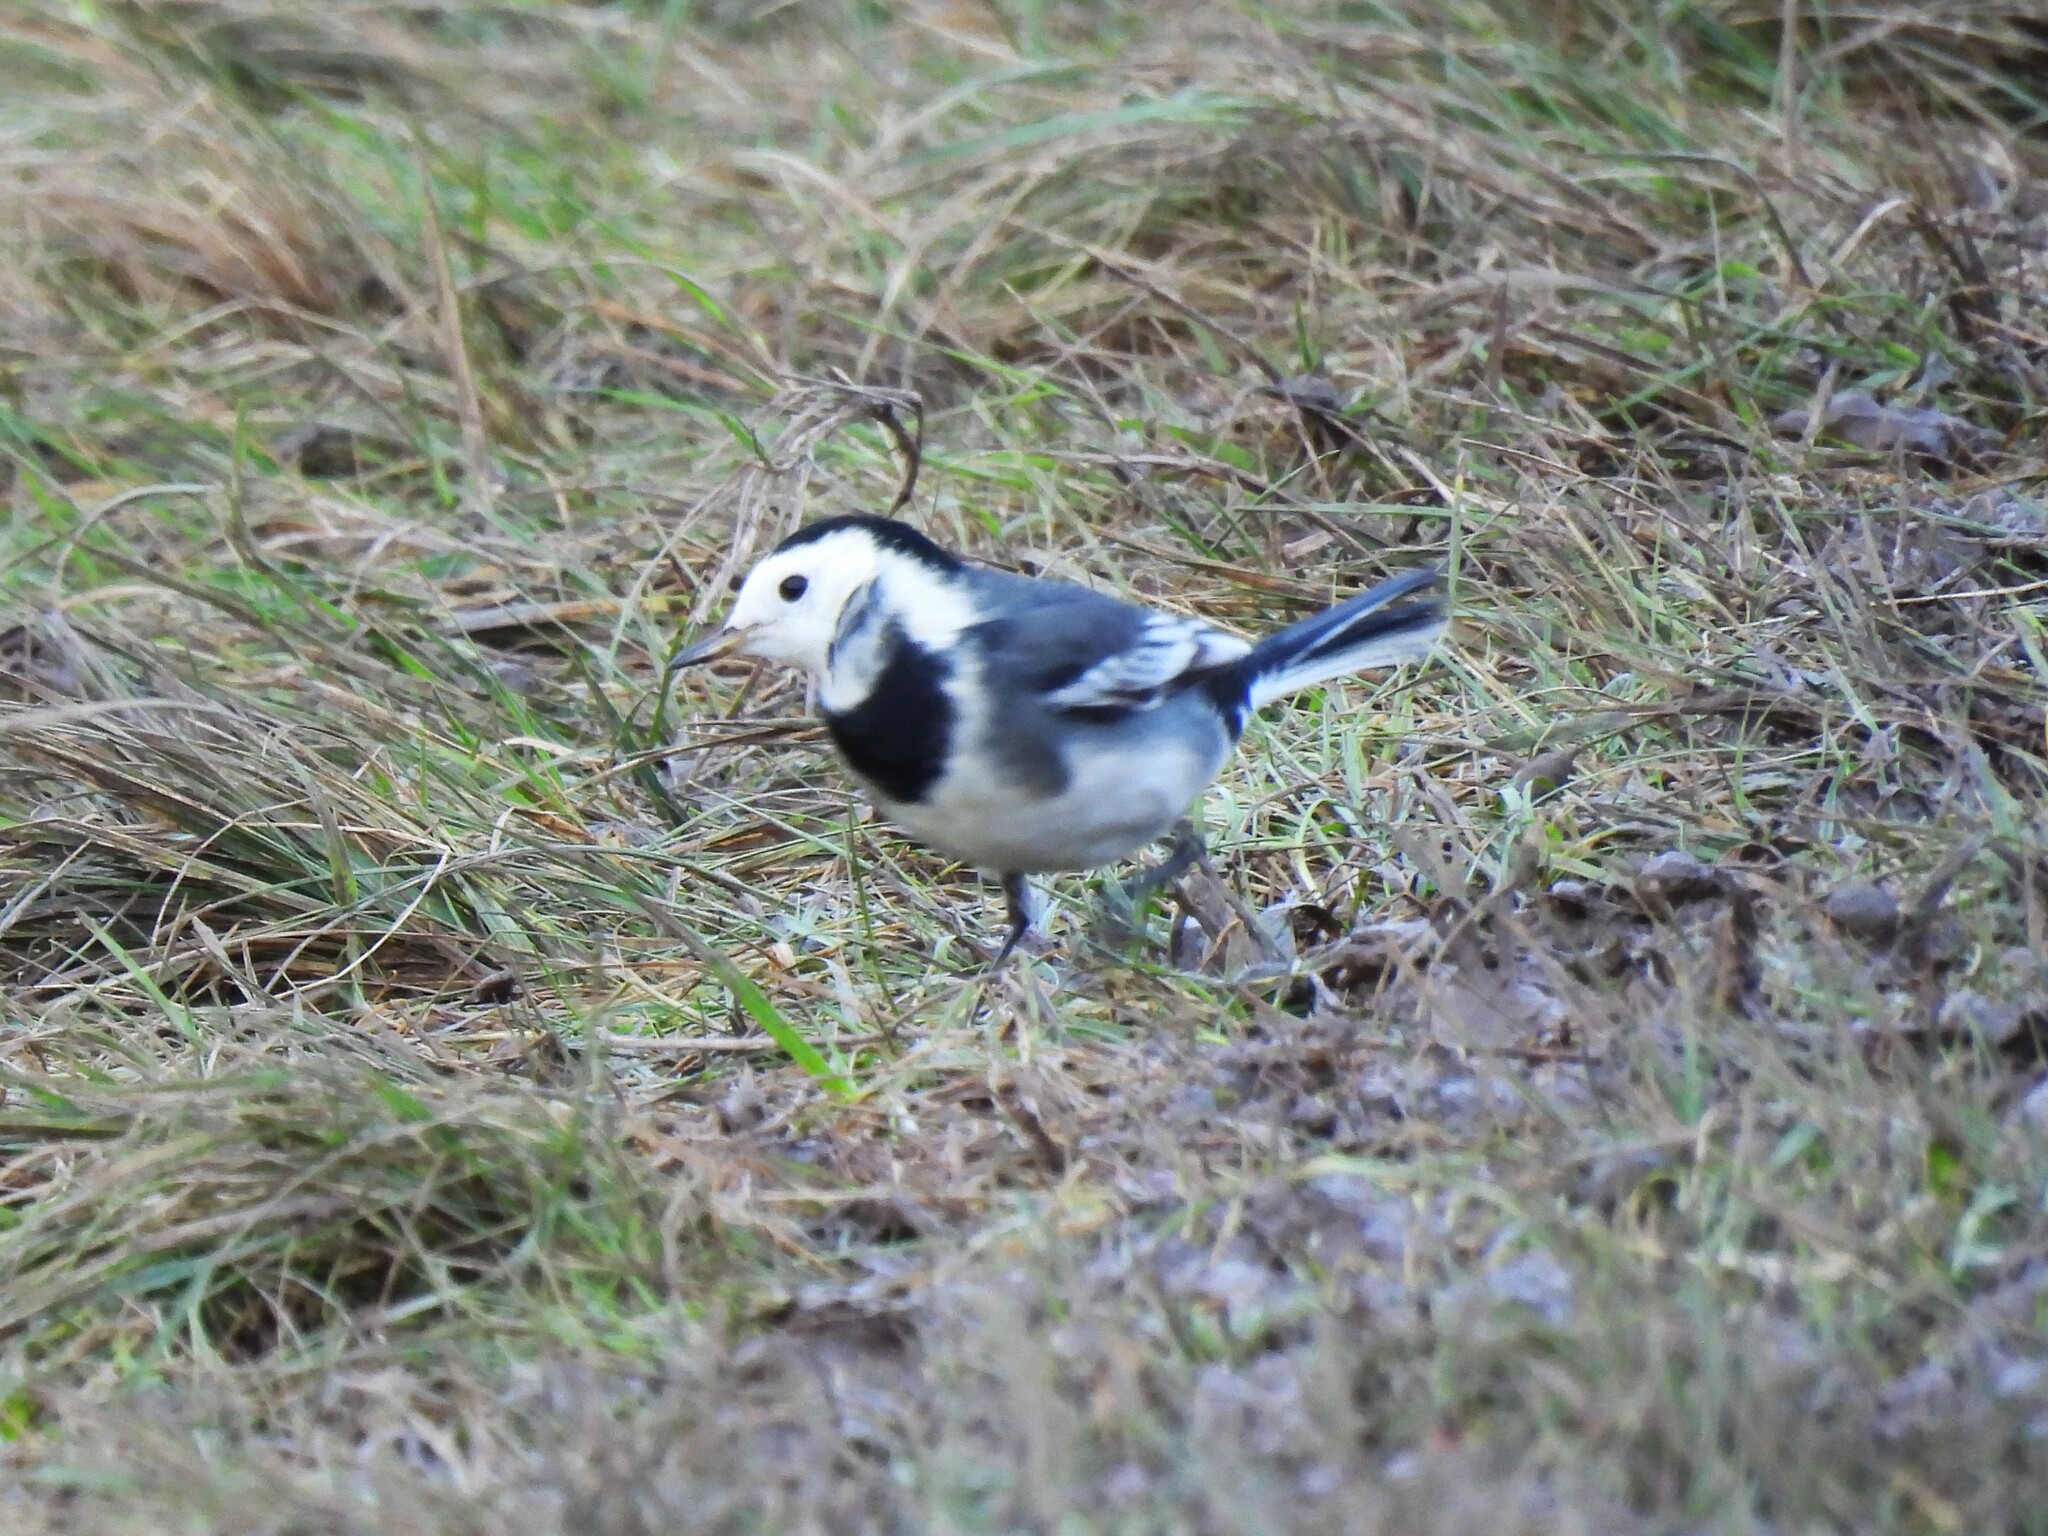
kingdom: Animalia
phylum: Chordata
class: Aves
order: Passeriformes
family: Motacillidae
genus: Motacilla
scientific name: Motacilla alba
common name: White wagtail
